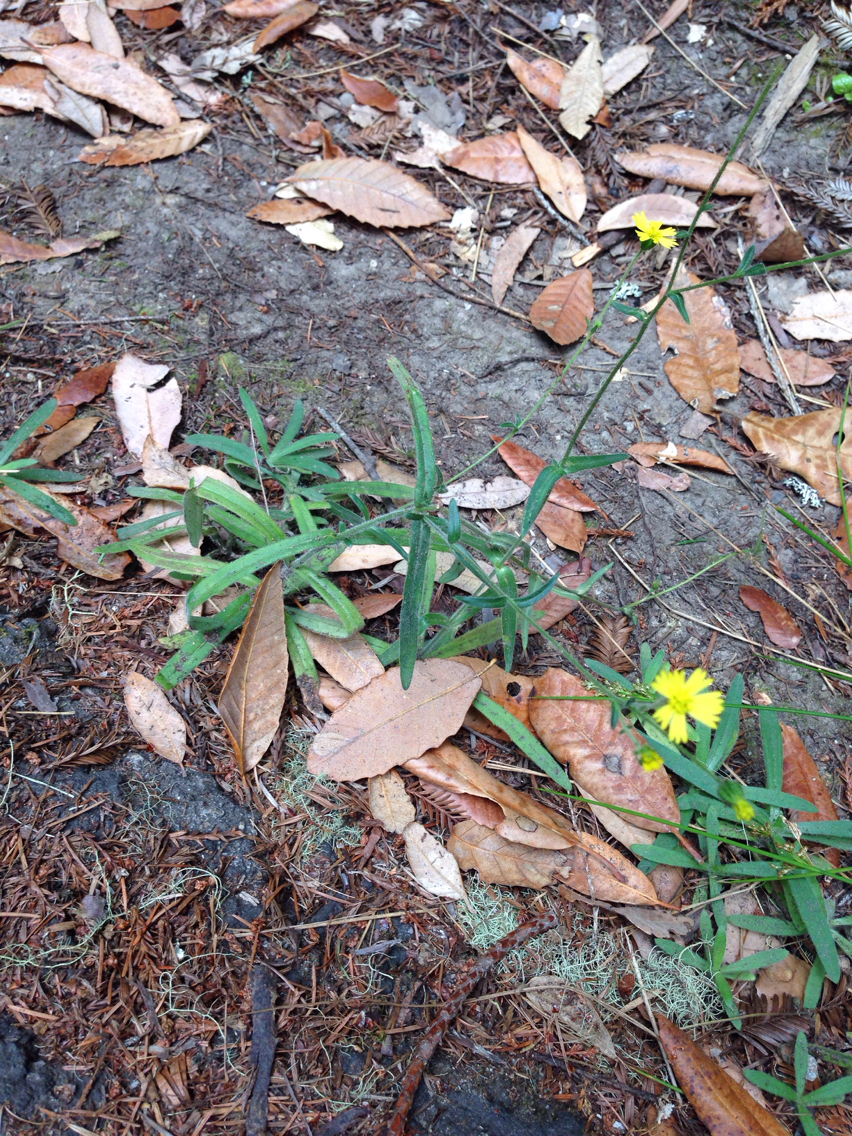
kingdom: Plantae
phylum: Tracheophyta
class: Magnoliopsida
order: Asterales
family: Asteraceae
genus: Anisocarpus
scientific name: Anisocarpus madioides
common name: Woodland madia
